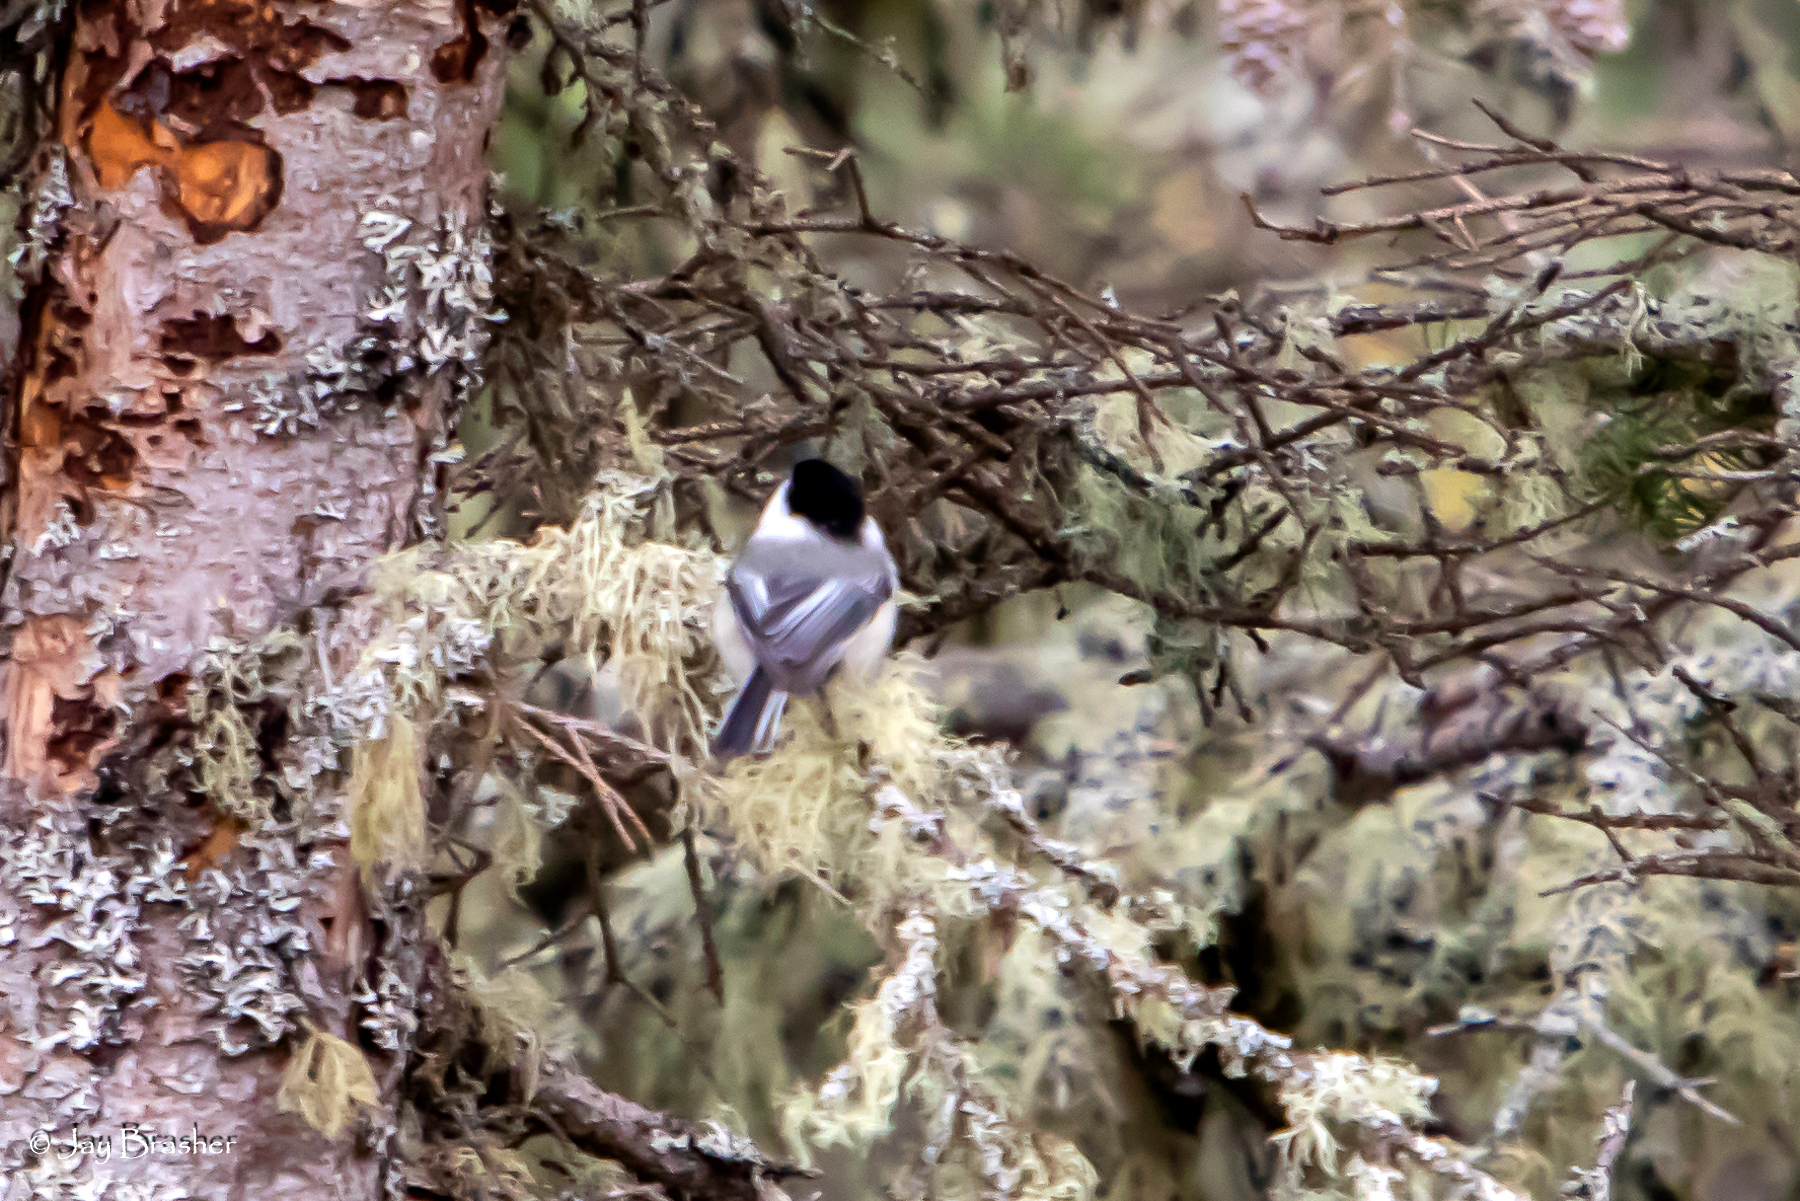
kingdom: Animalia
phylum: Chordata
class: Aves
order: Passeriformes
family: Paridae
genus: Poecile
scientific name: Poecile atricapillus
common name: Black-capped chickadee
